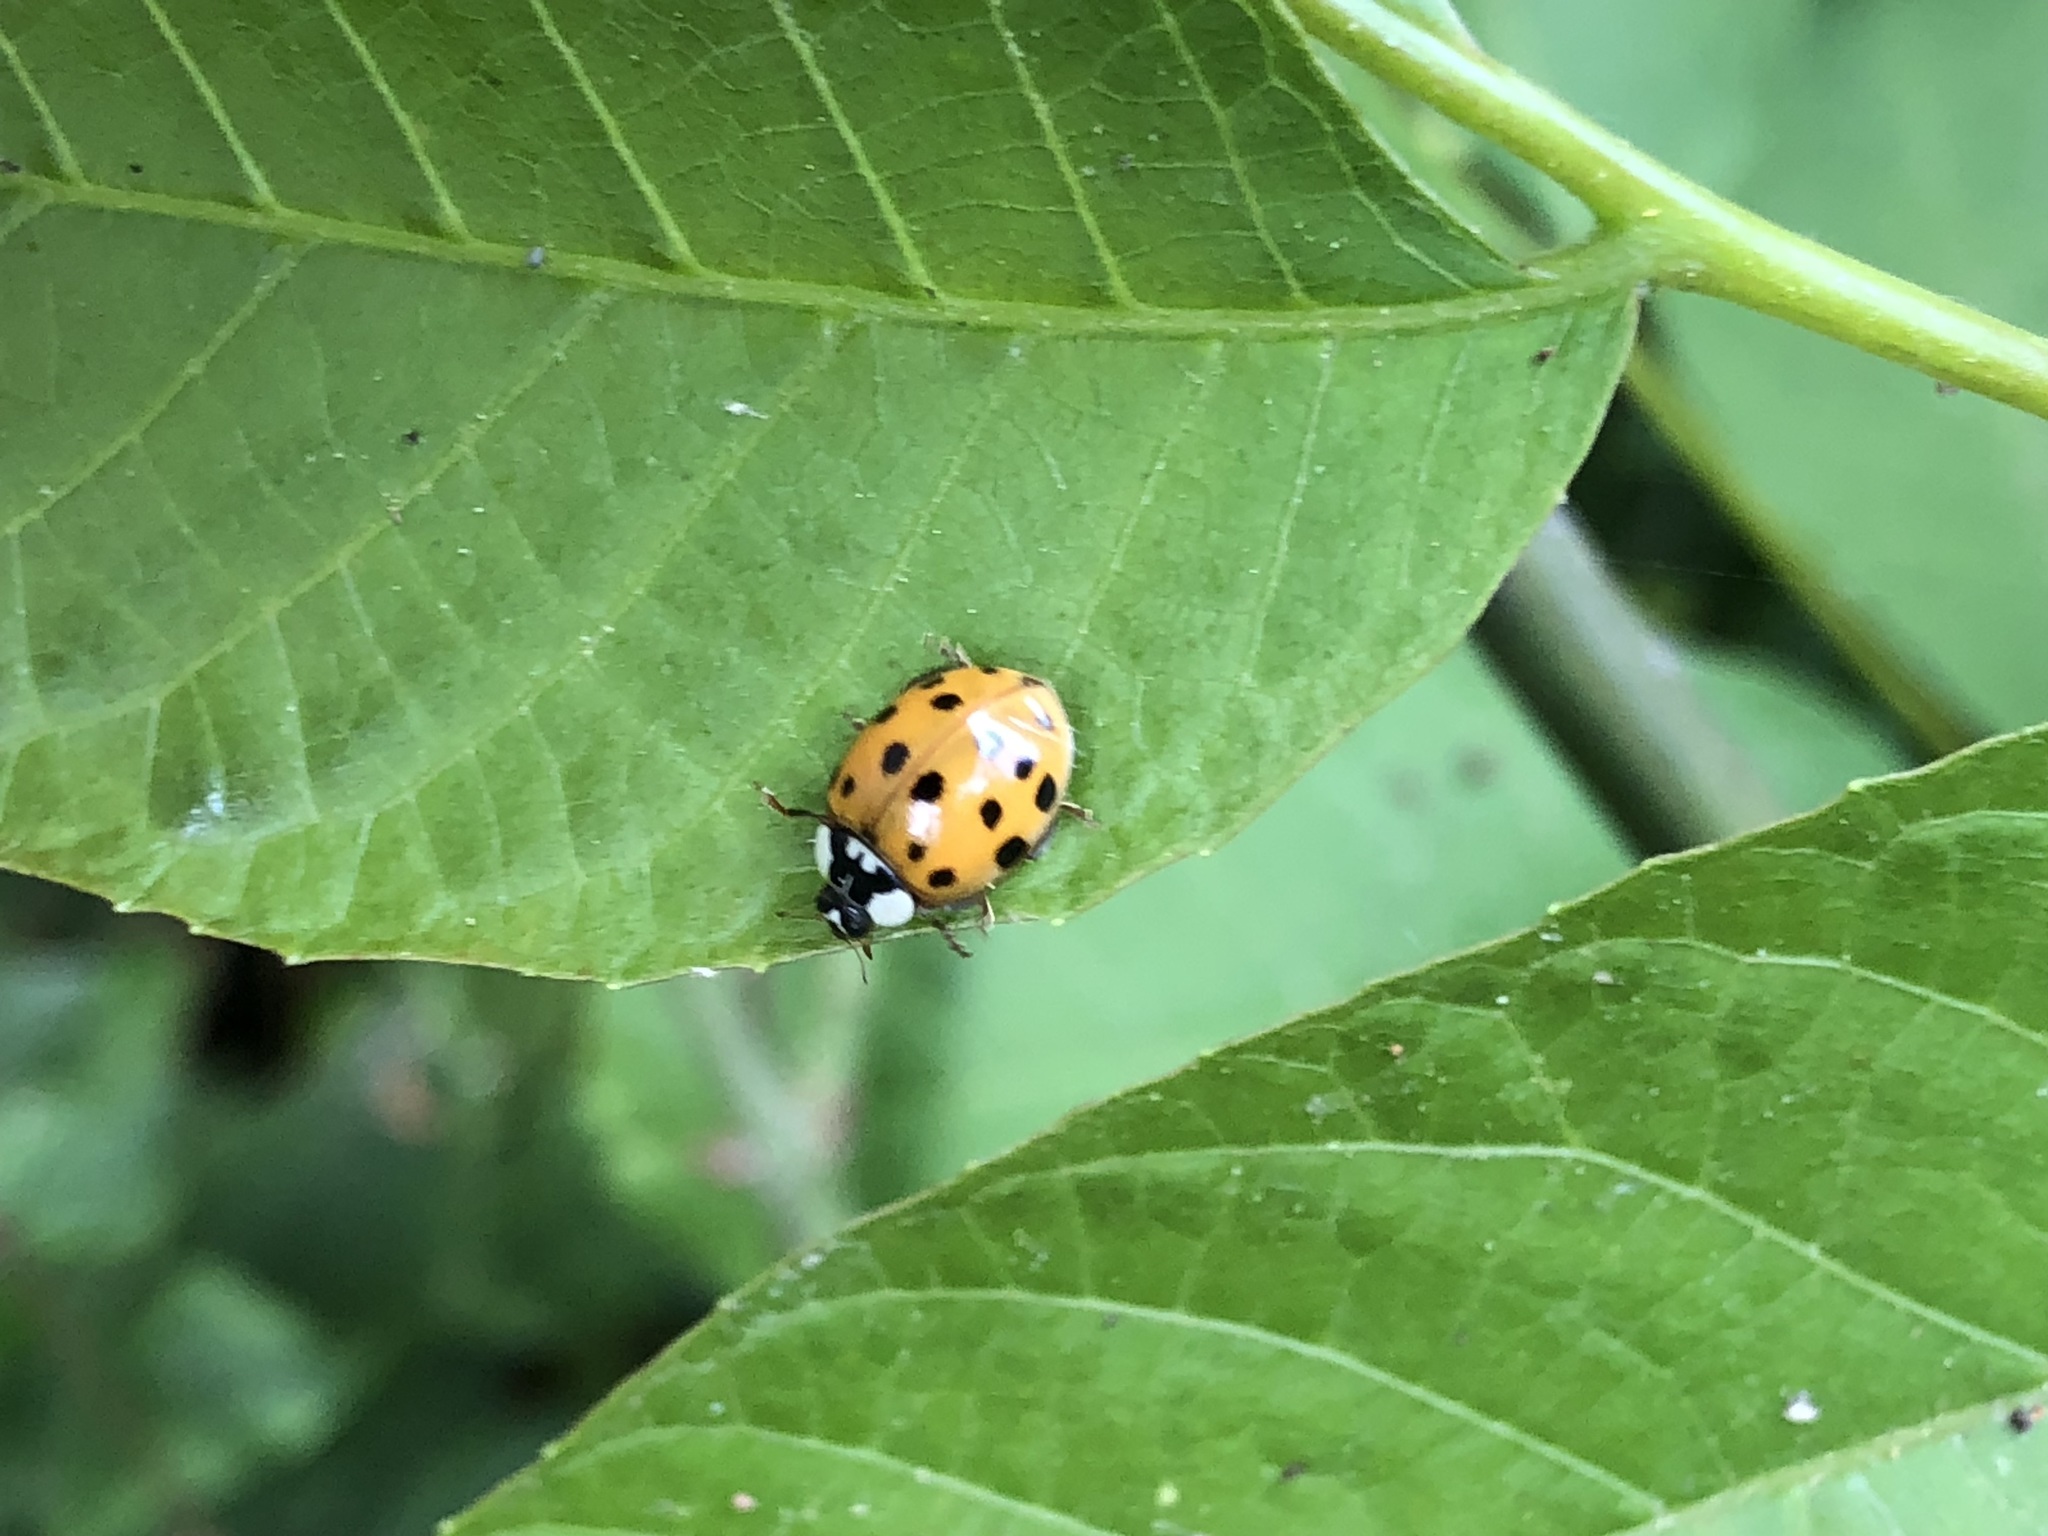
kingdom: Animalia
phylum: Arthropoda
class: Insecta
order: Coleoptera
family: Coccinellidae
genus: Harmonia
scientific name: Harmonia axyridis
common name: Harlequin ladybird
